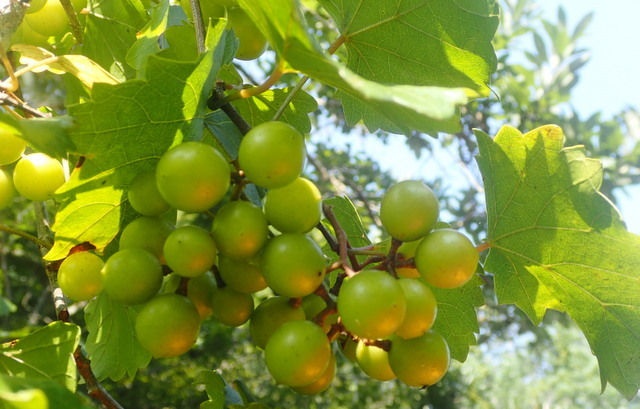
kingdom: Plantae
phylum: Tracheophyta
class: Magnoliopsida
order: Vitales
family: Vitaceae
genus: Vitis
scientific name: Vitis rotundifolia
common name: Muscadine grape
